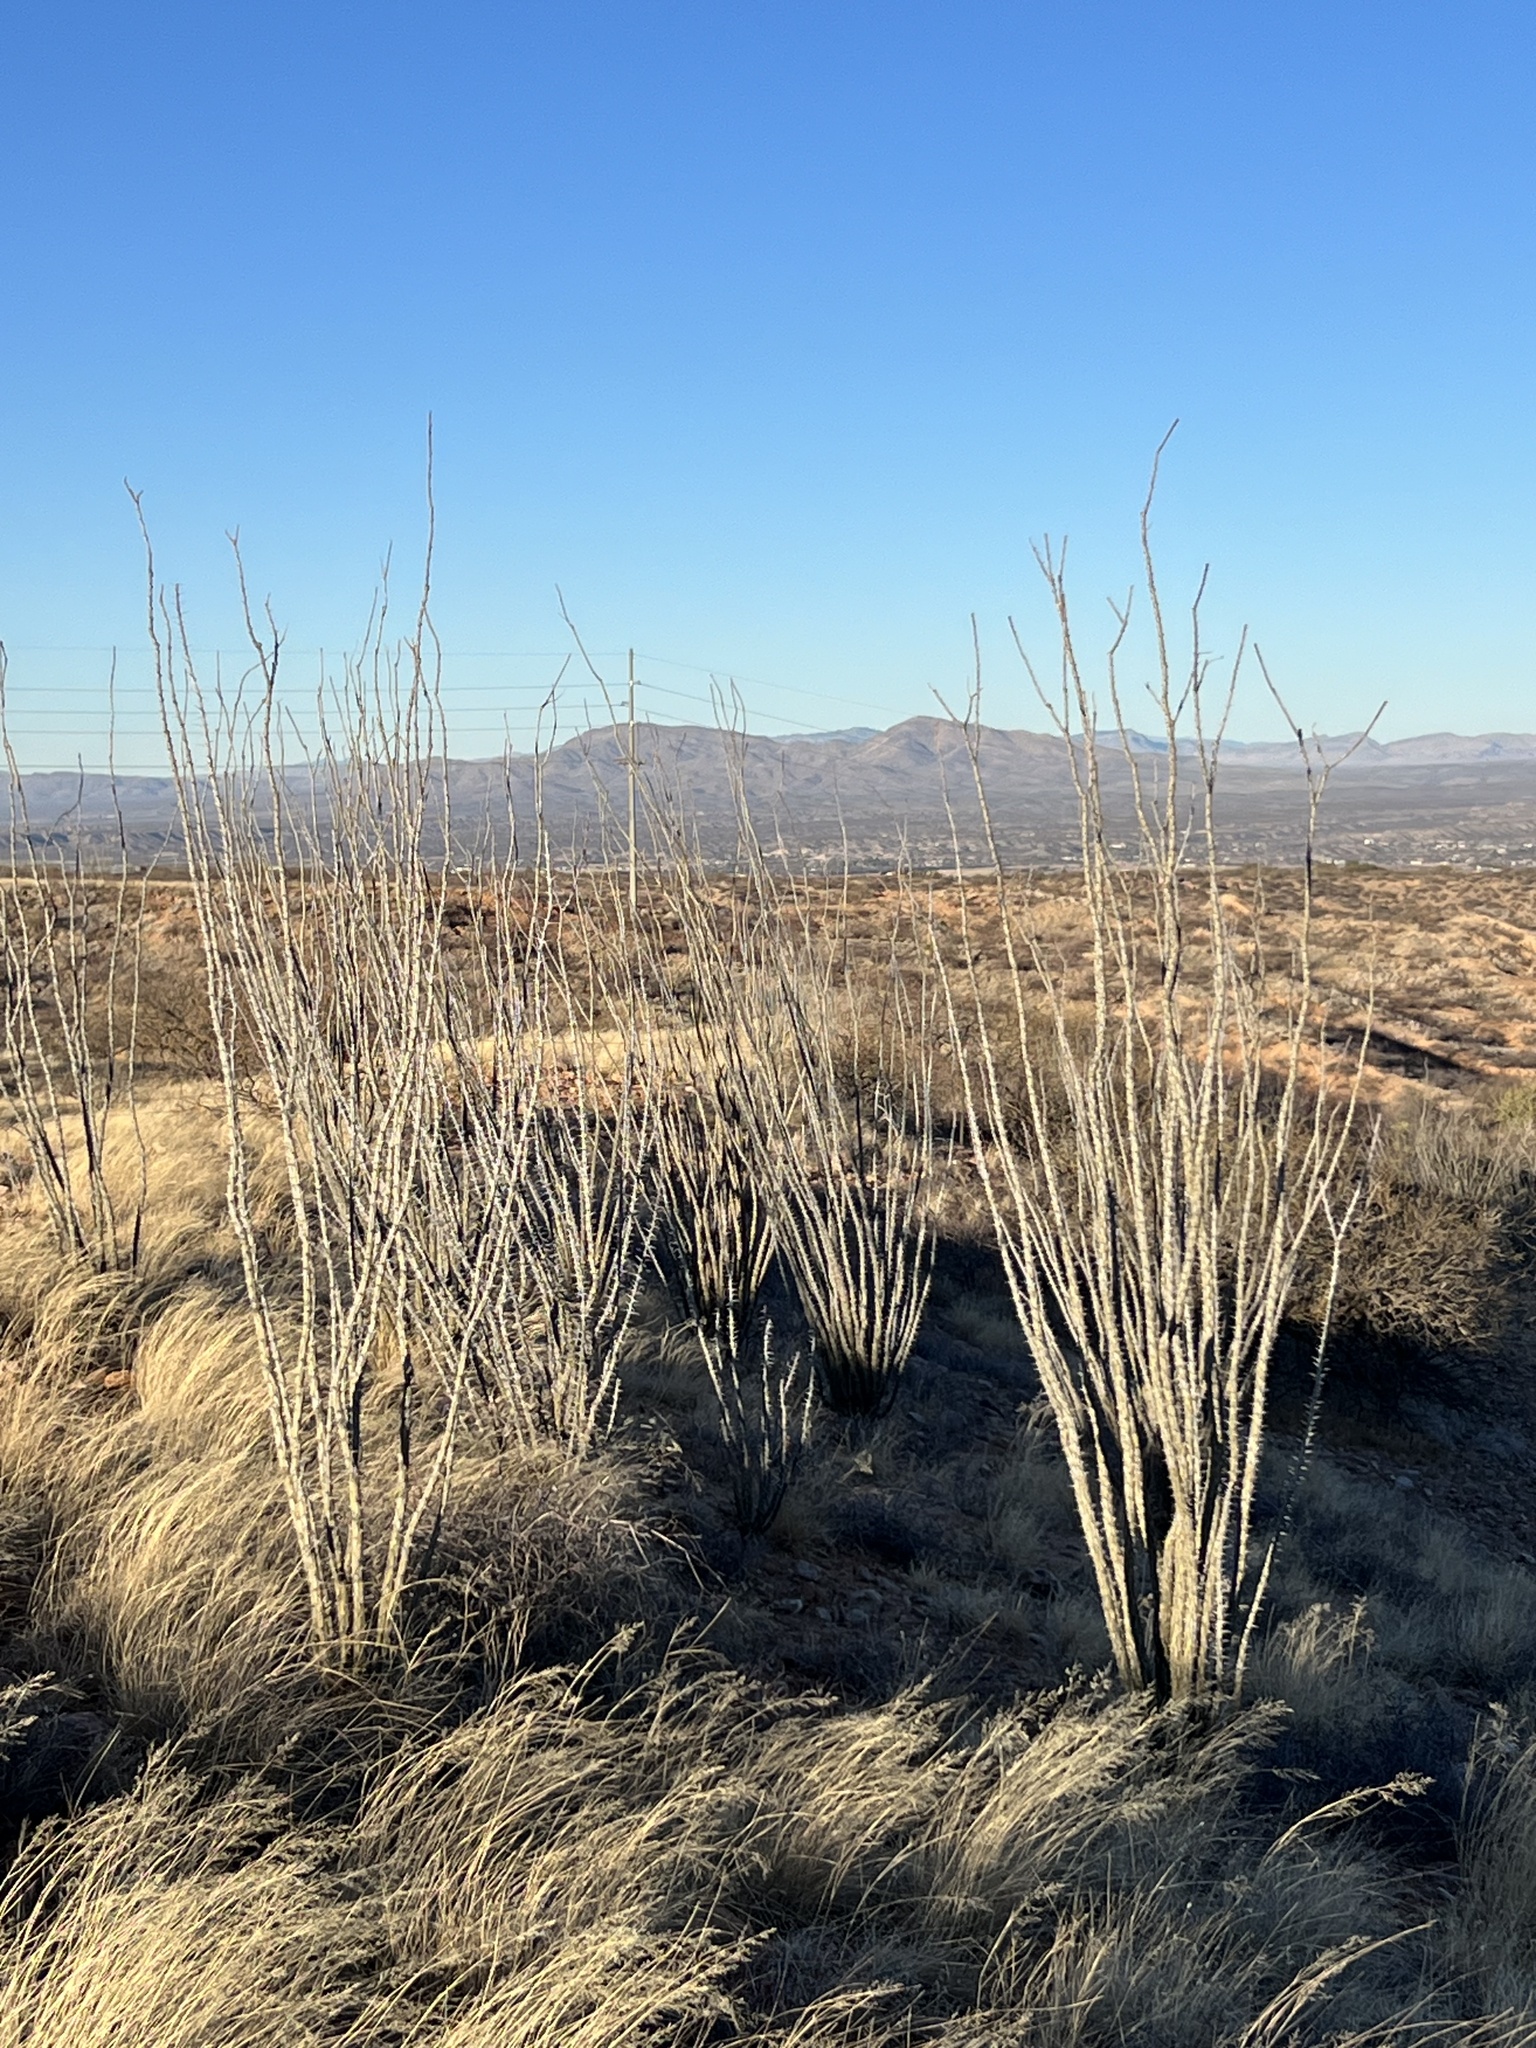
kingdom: Plantae
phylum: Tracheophyta
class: Magnoliopsida
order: Ericales
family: Fouquieriaceae
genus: Fouquieria
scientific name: Fouquieria splendens
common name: Vine-cactus
